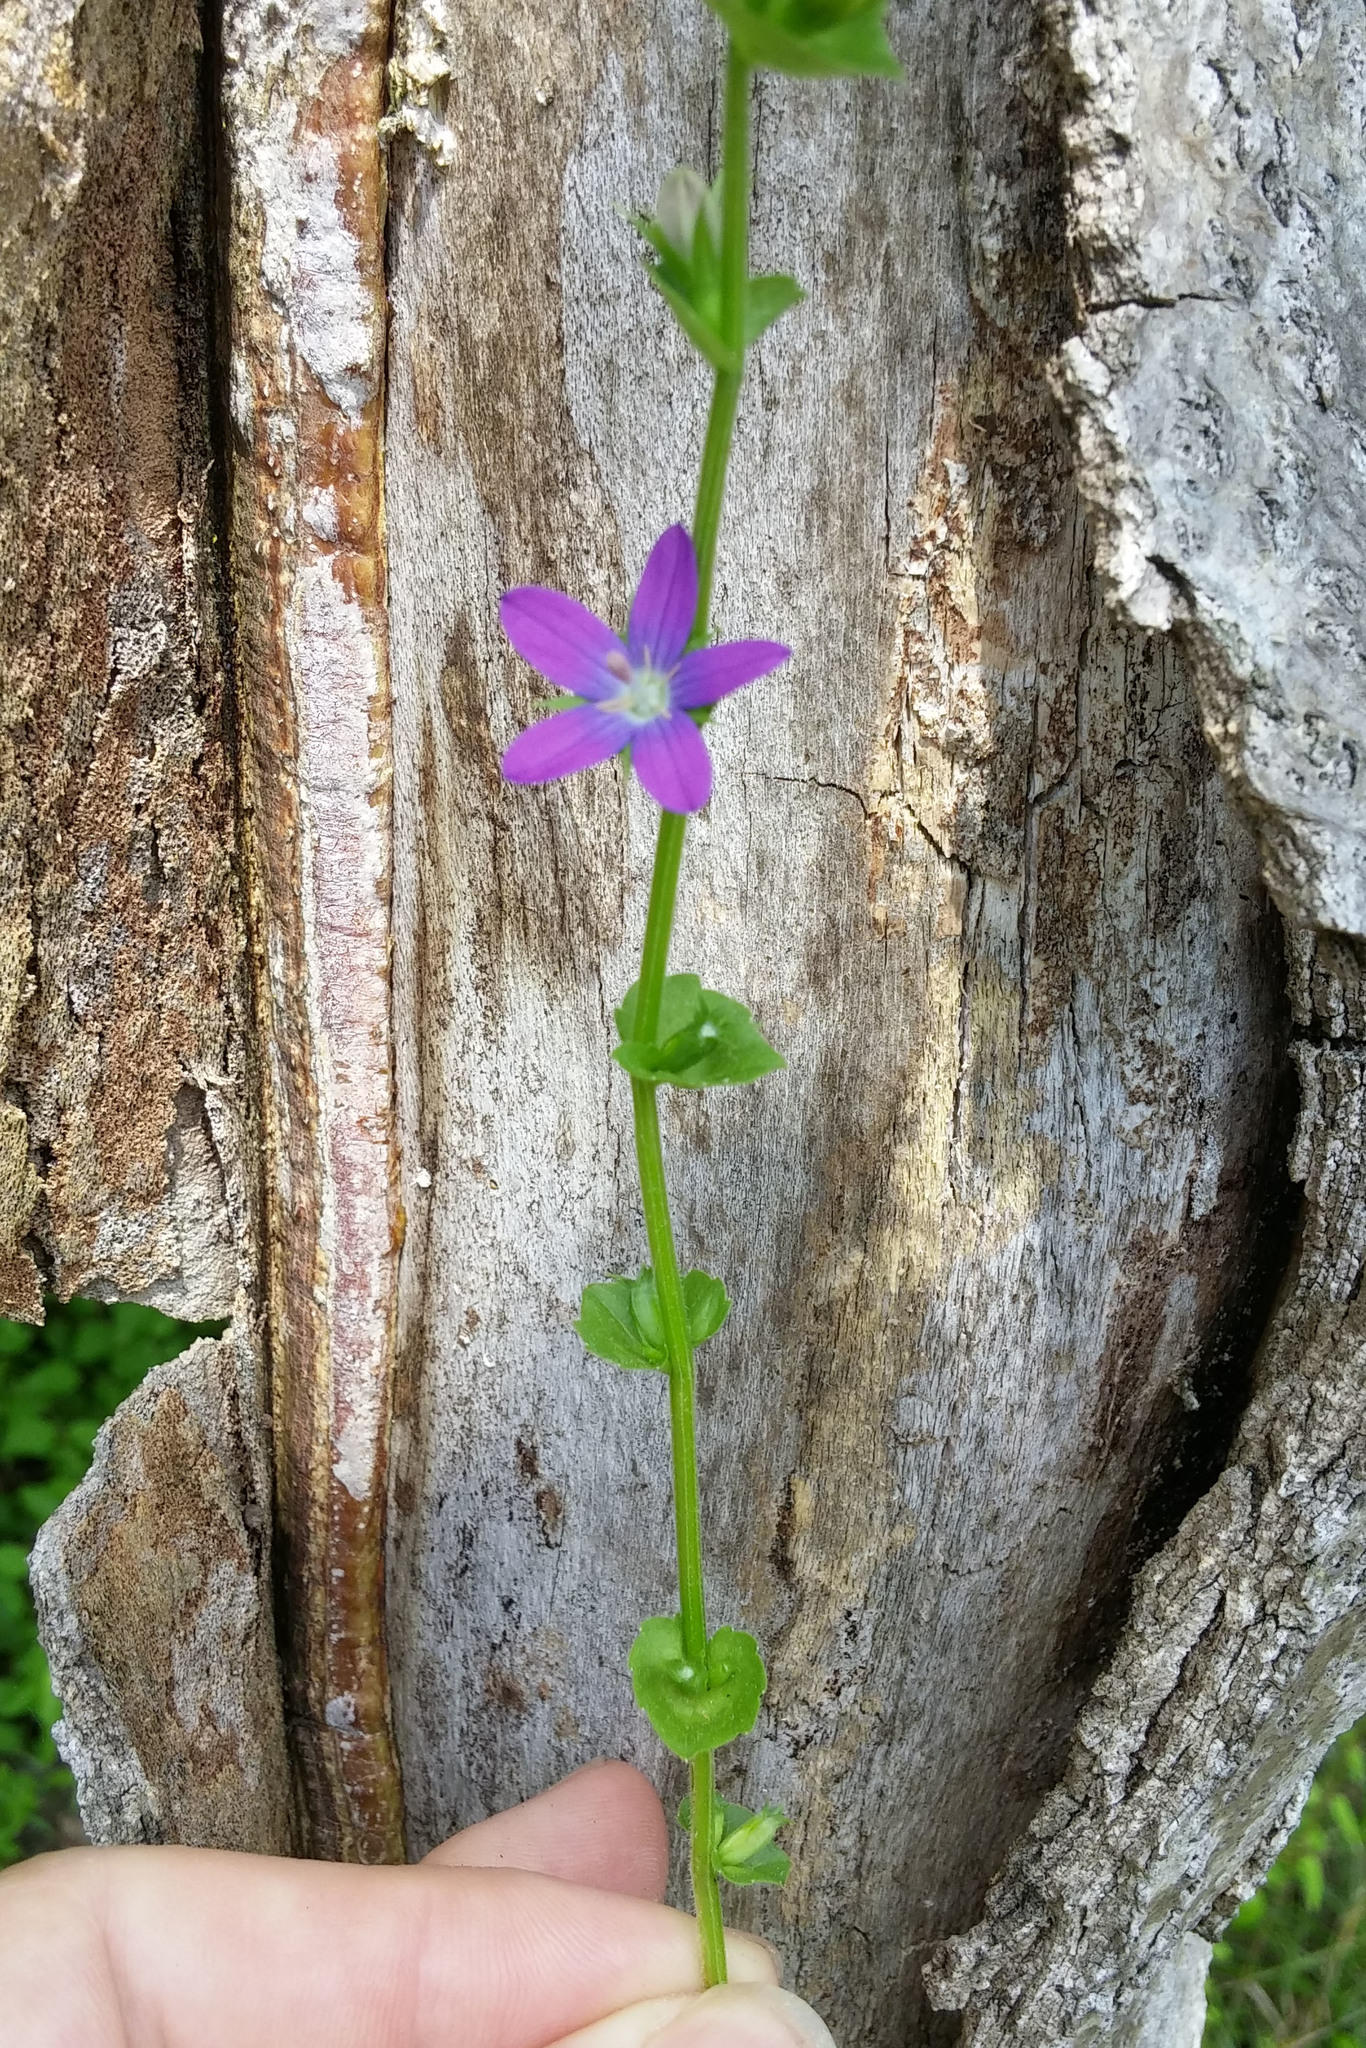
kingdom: Plantae
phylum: Tracheophyta
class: Magnoliopsida
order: Asterales
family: Campanulaceae
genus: Triodanis
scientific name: Triodanis perfoliata
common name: Clasping venus' looking-glass
